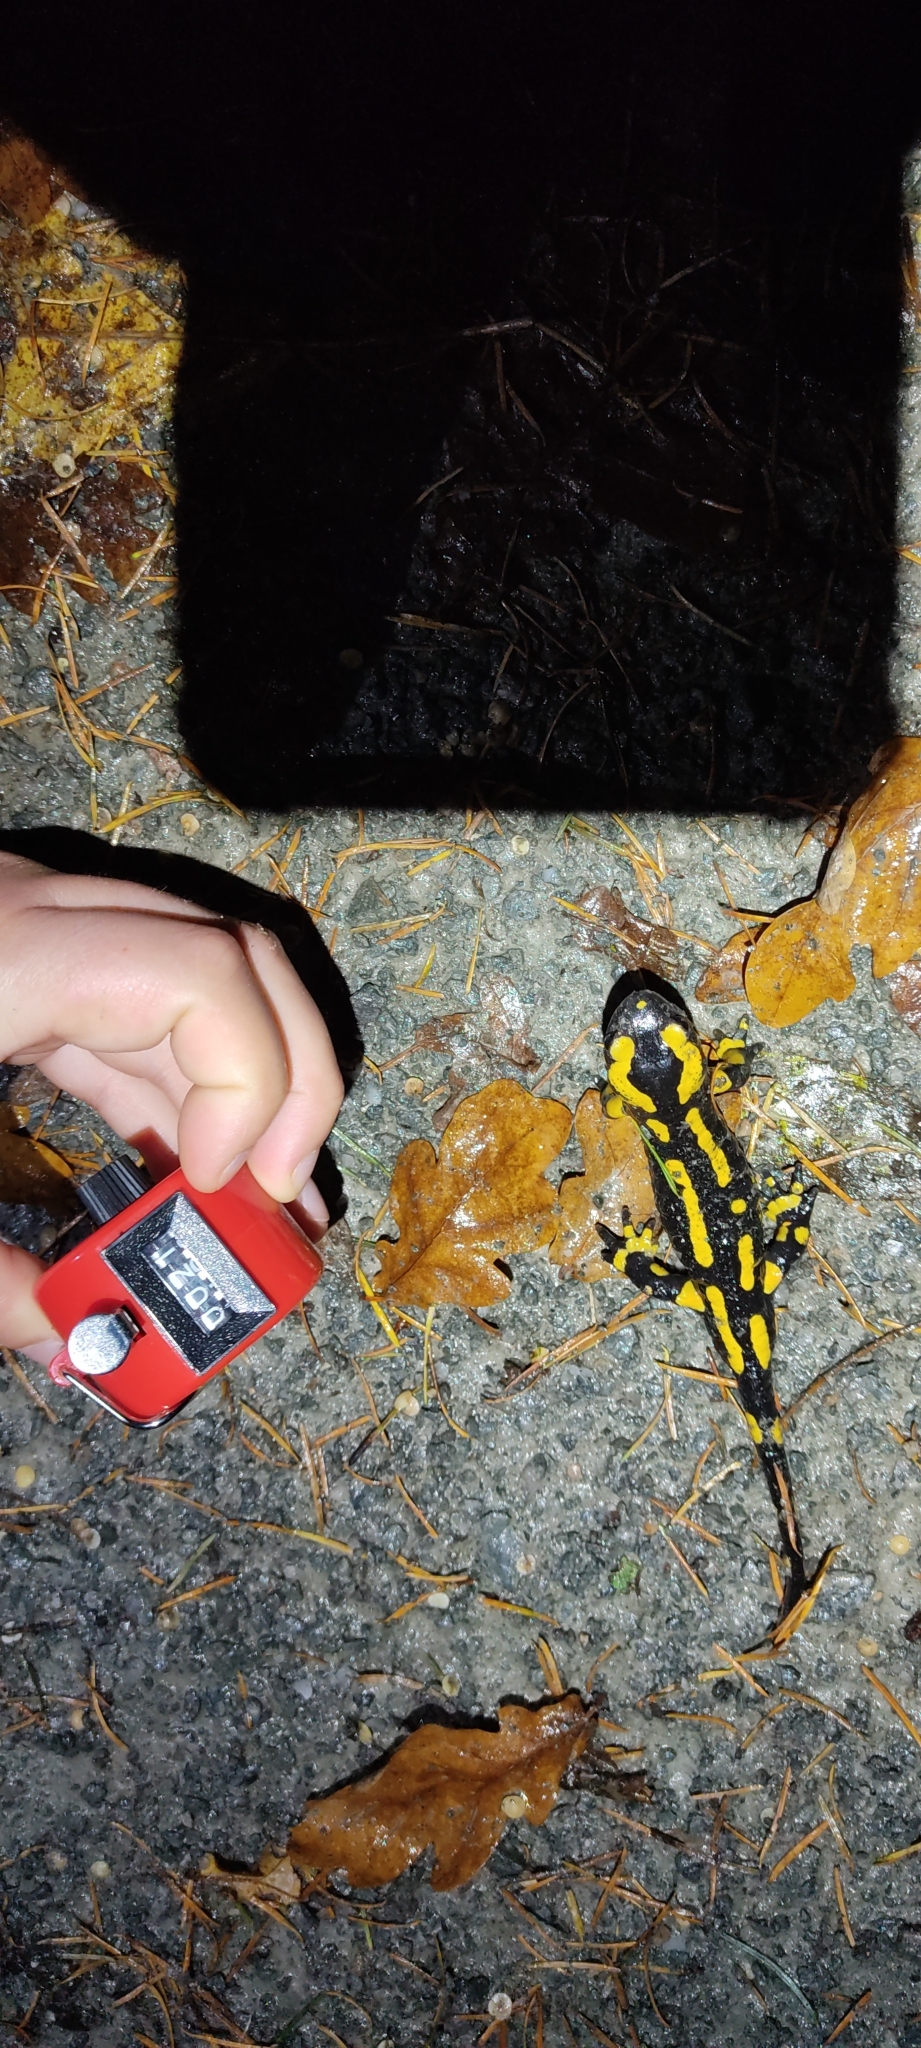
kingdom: Animalia
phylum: Chordata
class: Amphibia
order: Caudata
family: Salamandridae
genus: Salamandra
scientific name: Salamandra salamandra
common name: Fire salamander
